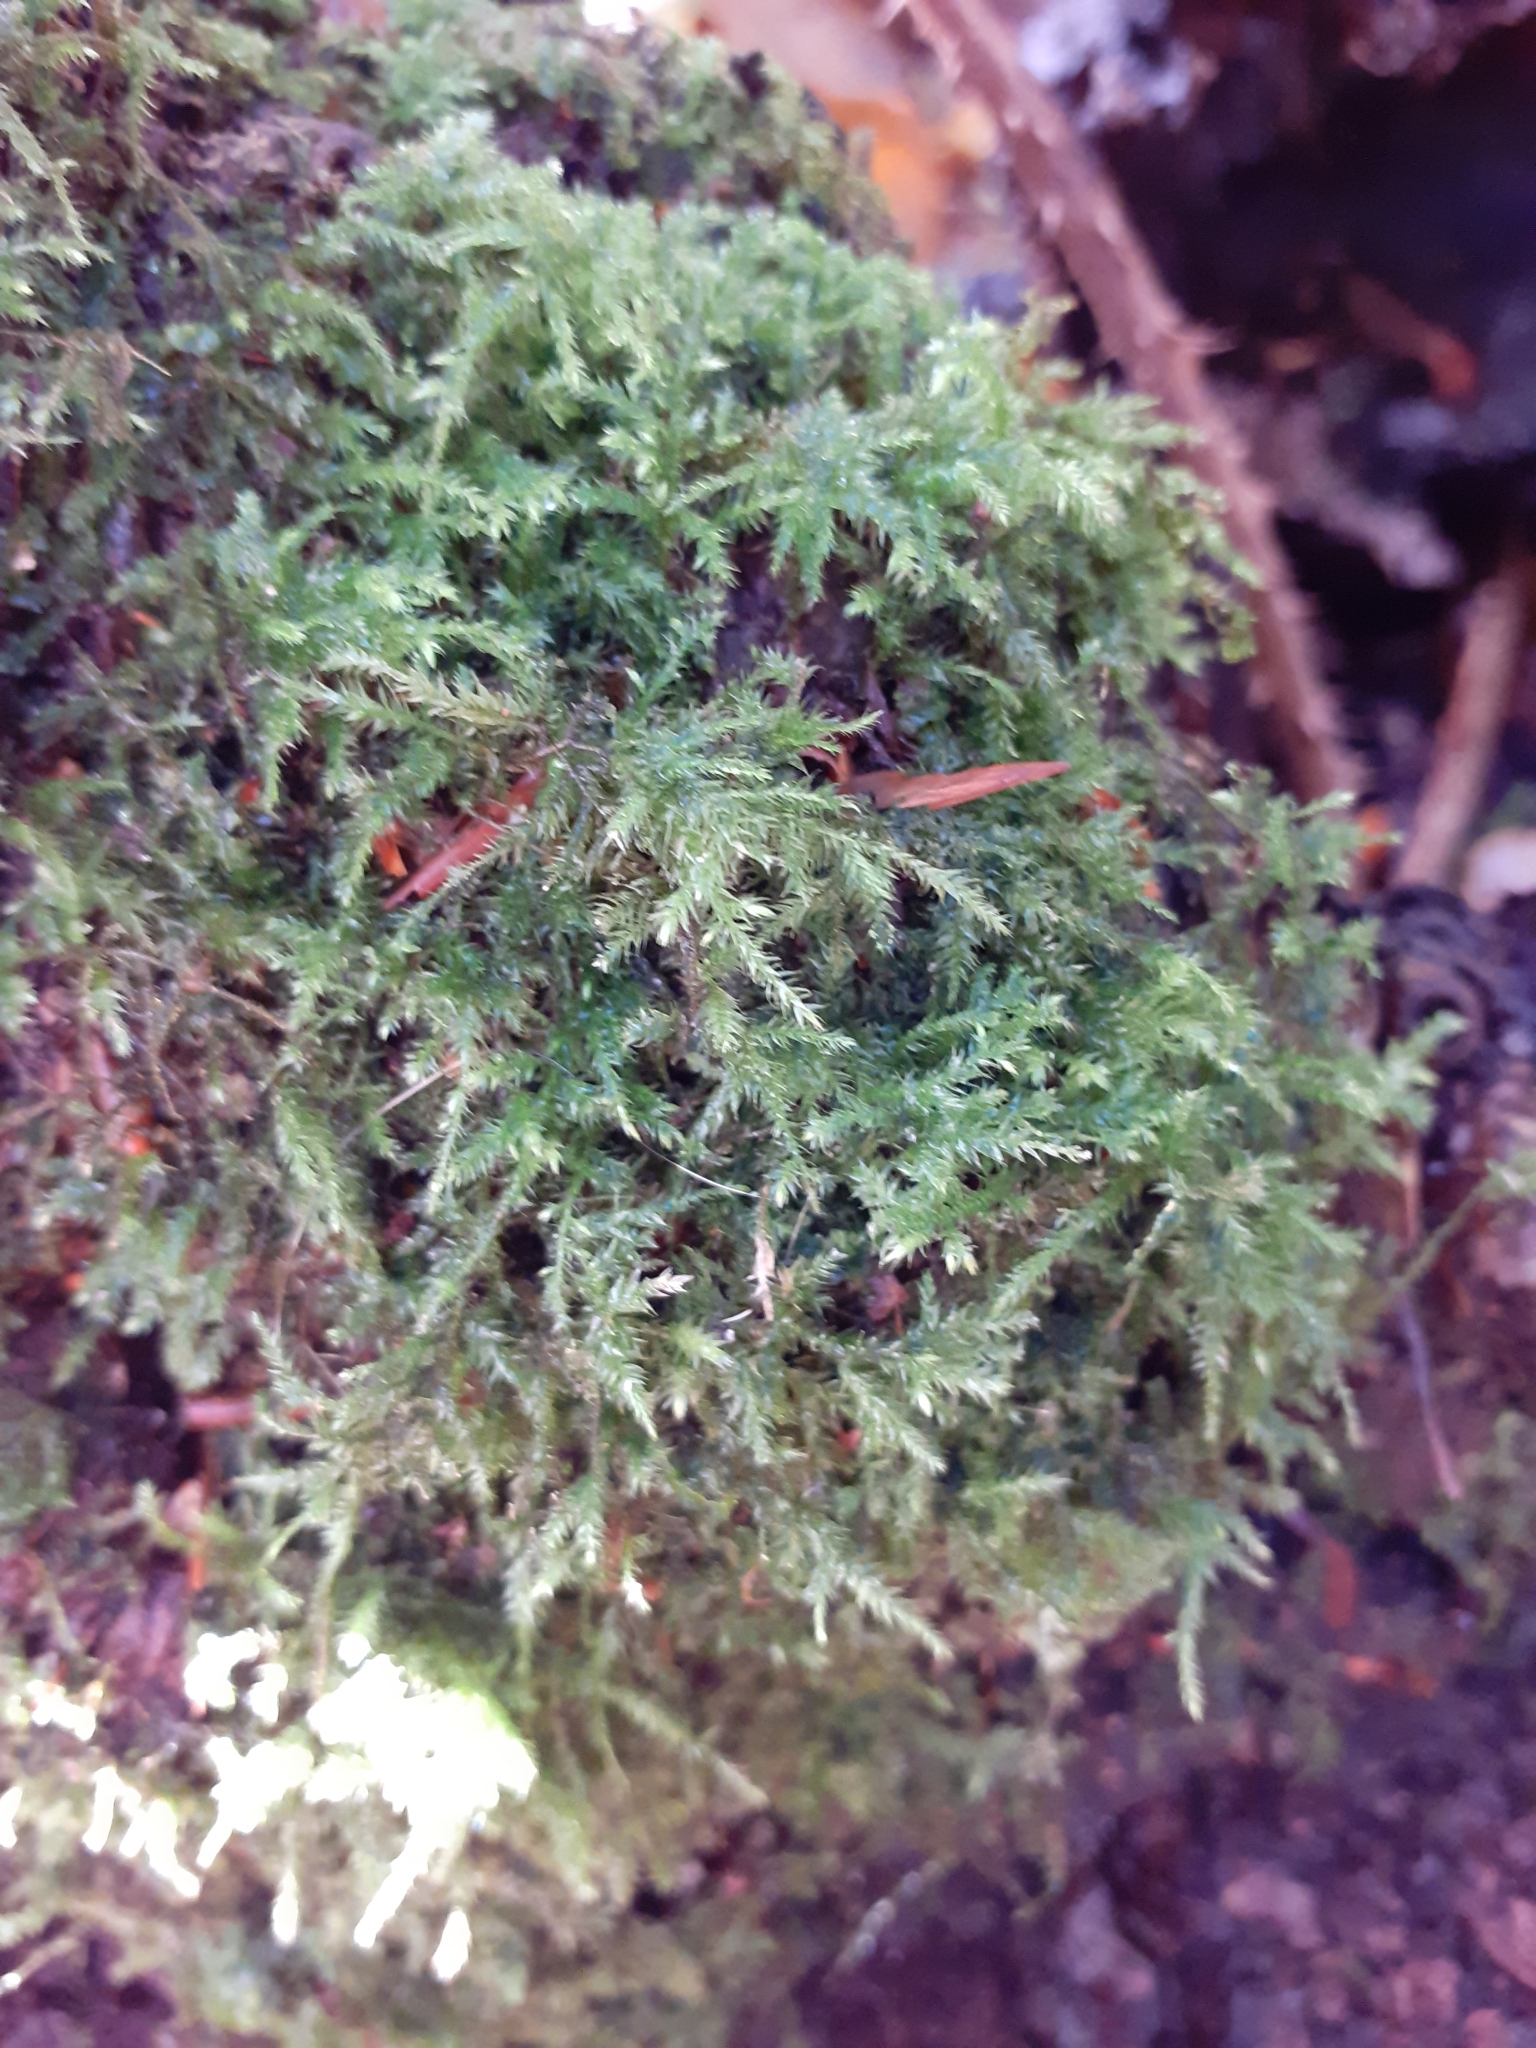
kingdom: Plantae
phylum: Bryophyta
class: Bryopsida
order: Hypnales
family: Brachytheciaceae
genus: Kindbergia
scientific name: Kindbergia praelonga
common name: Slender beaked moss
